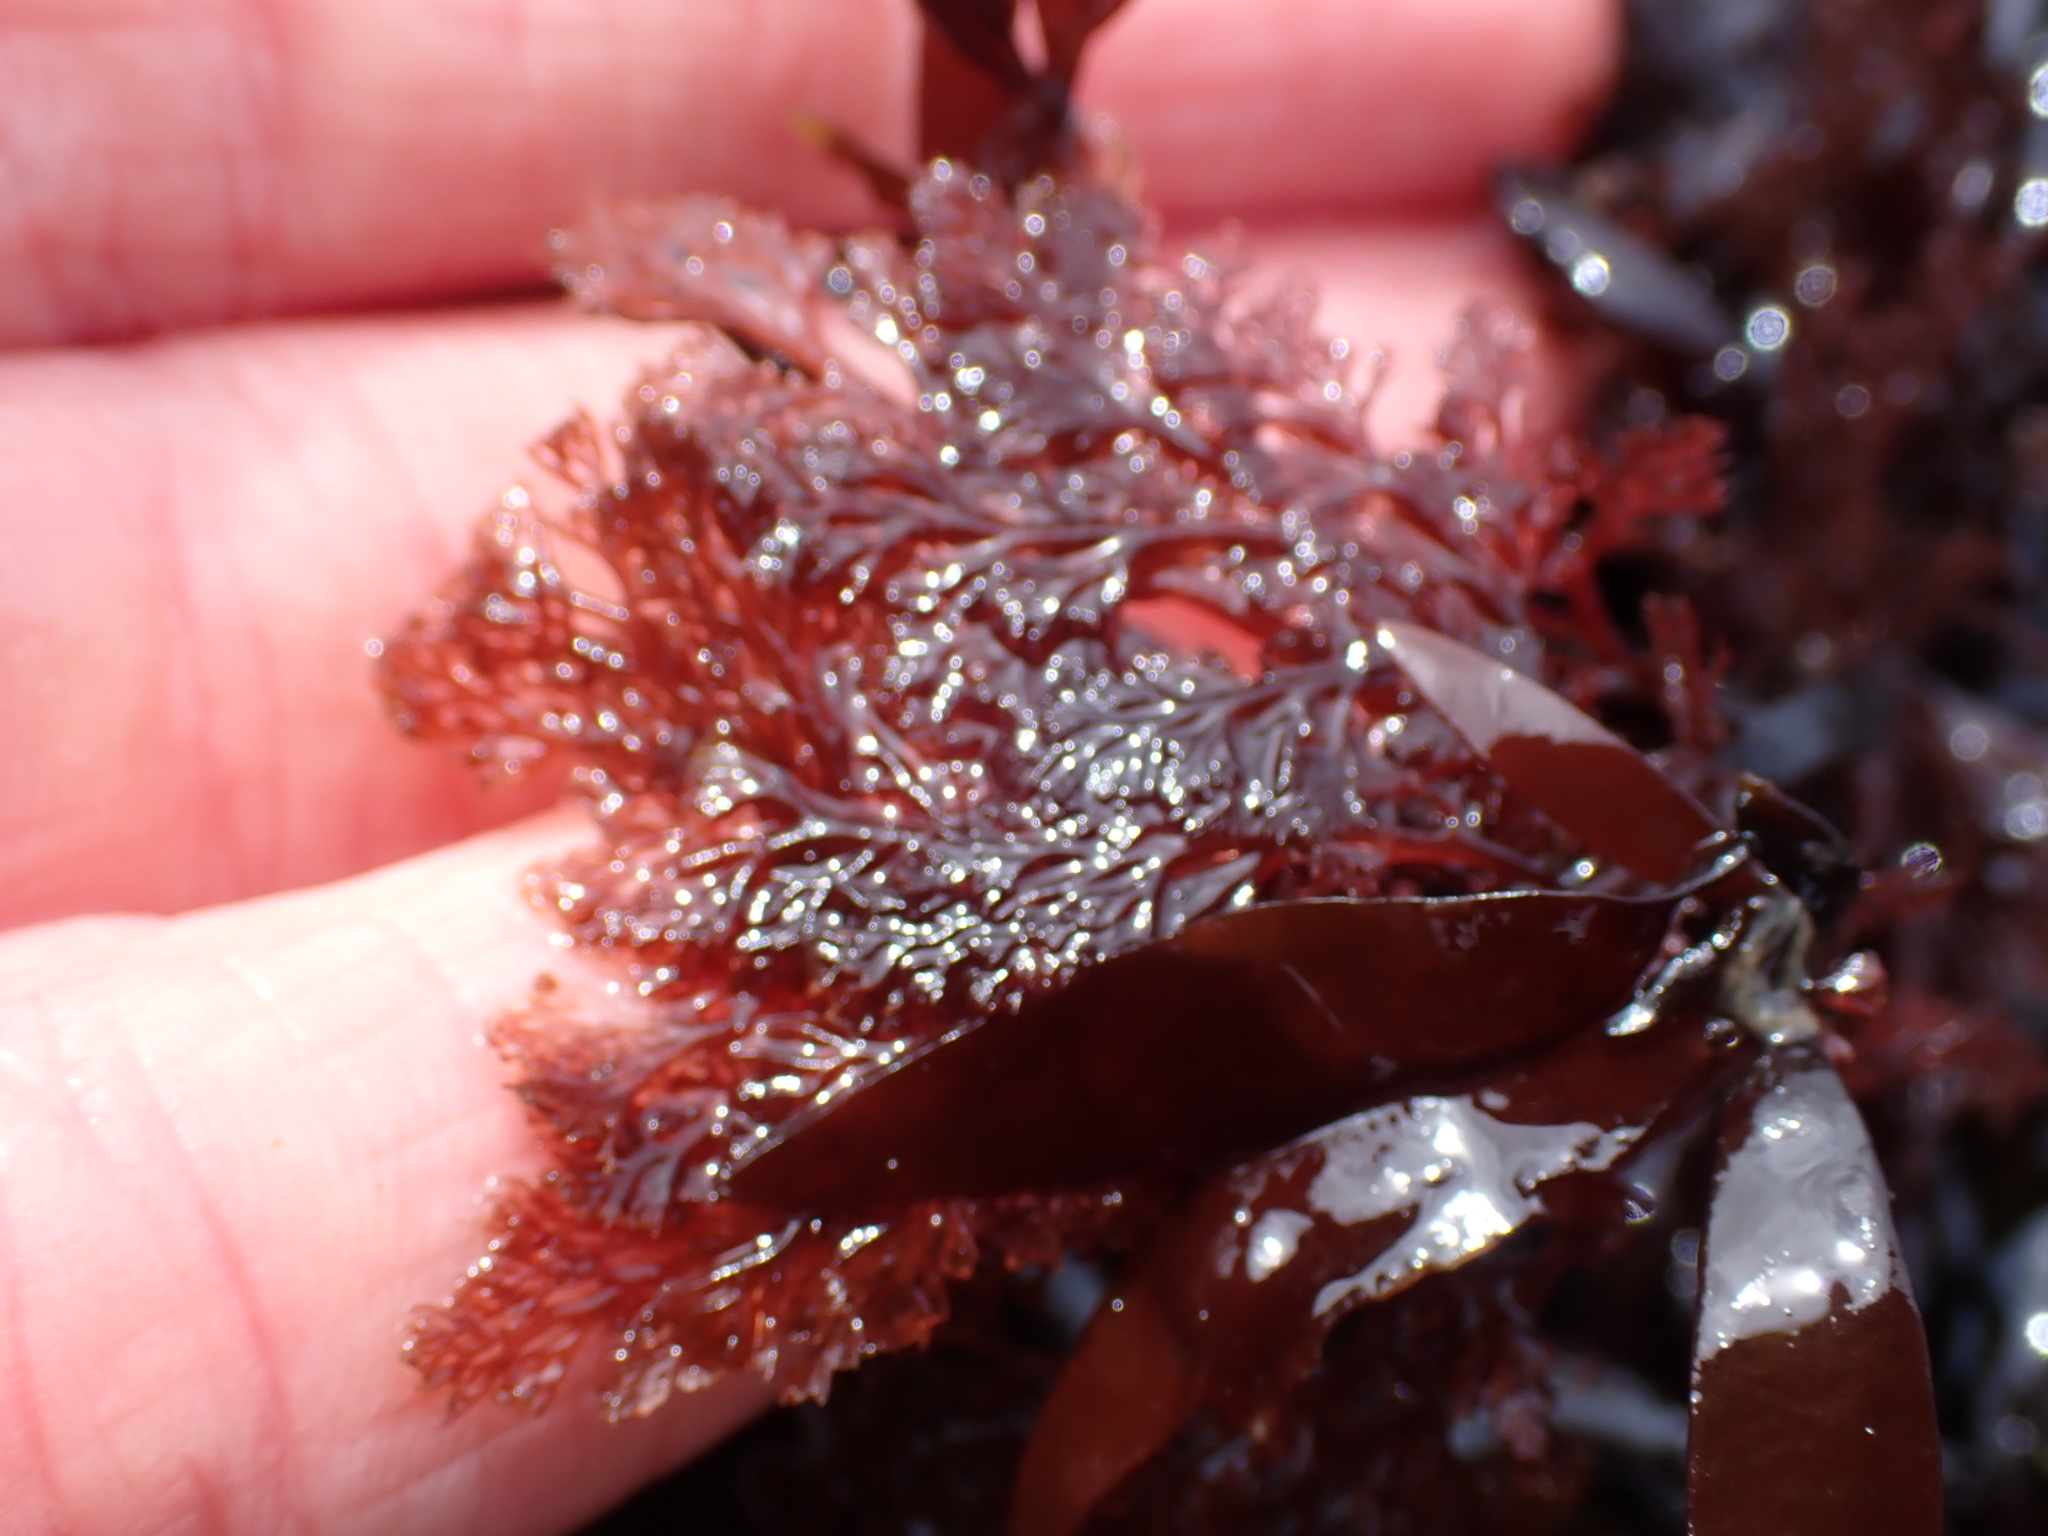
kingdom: Plantae
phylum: Rhodophyta
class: Florideophyceae
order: Ceramiales
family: Ceramiaceae
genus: Microcladia
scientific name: Microcladia coulteri
